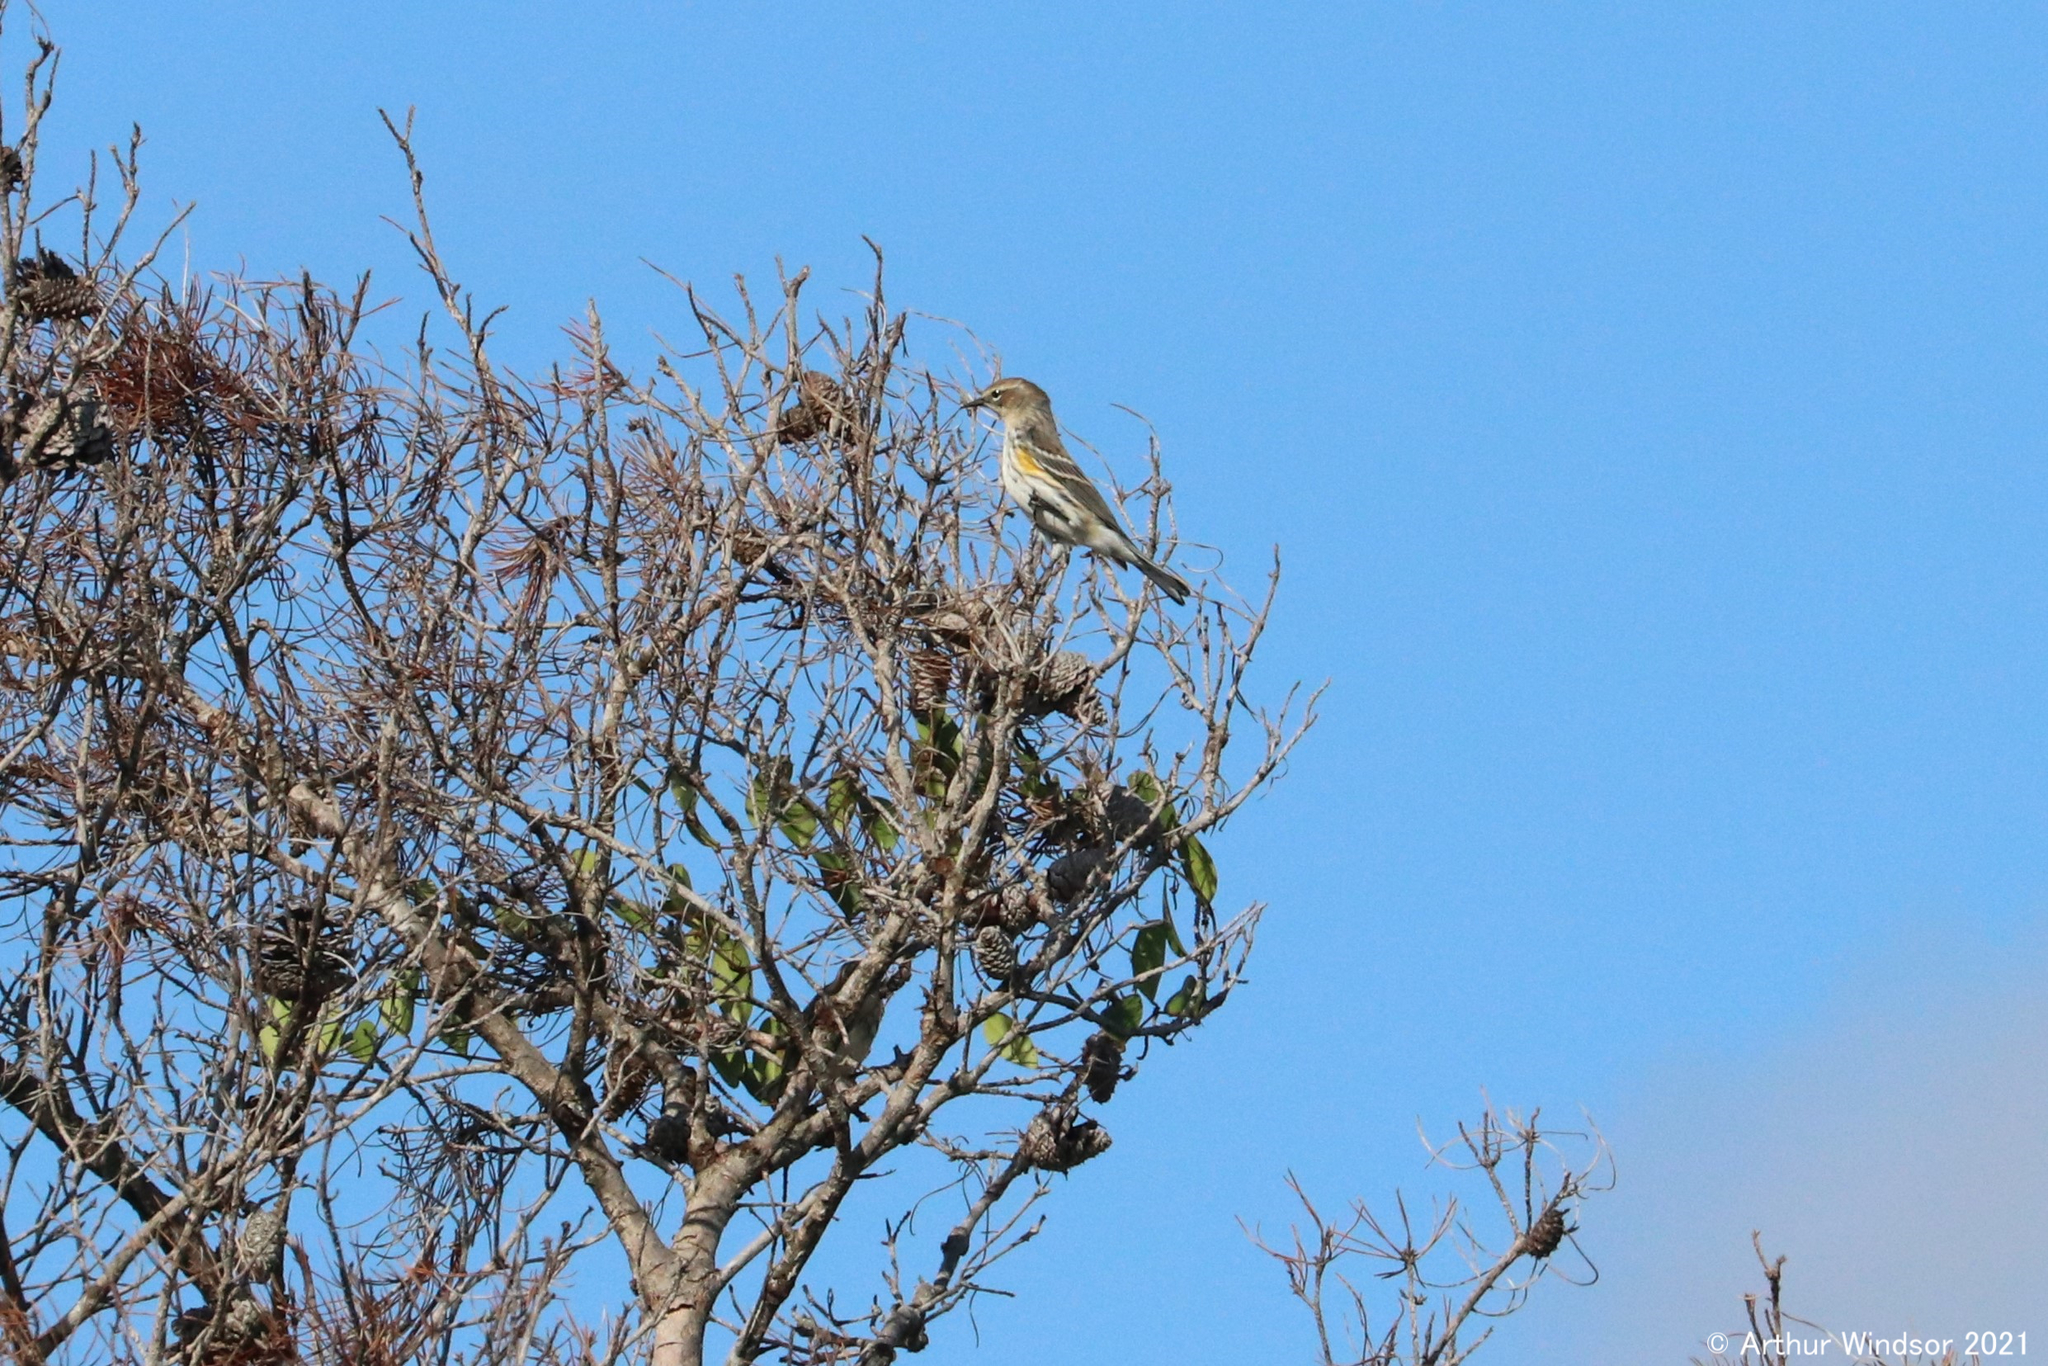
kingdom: Animalia
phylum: Chordata
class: Aves
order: Passeriformes
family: Parulidae
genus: Setophaga
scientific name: Setophaga coronata
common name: Myrtle warbler
